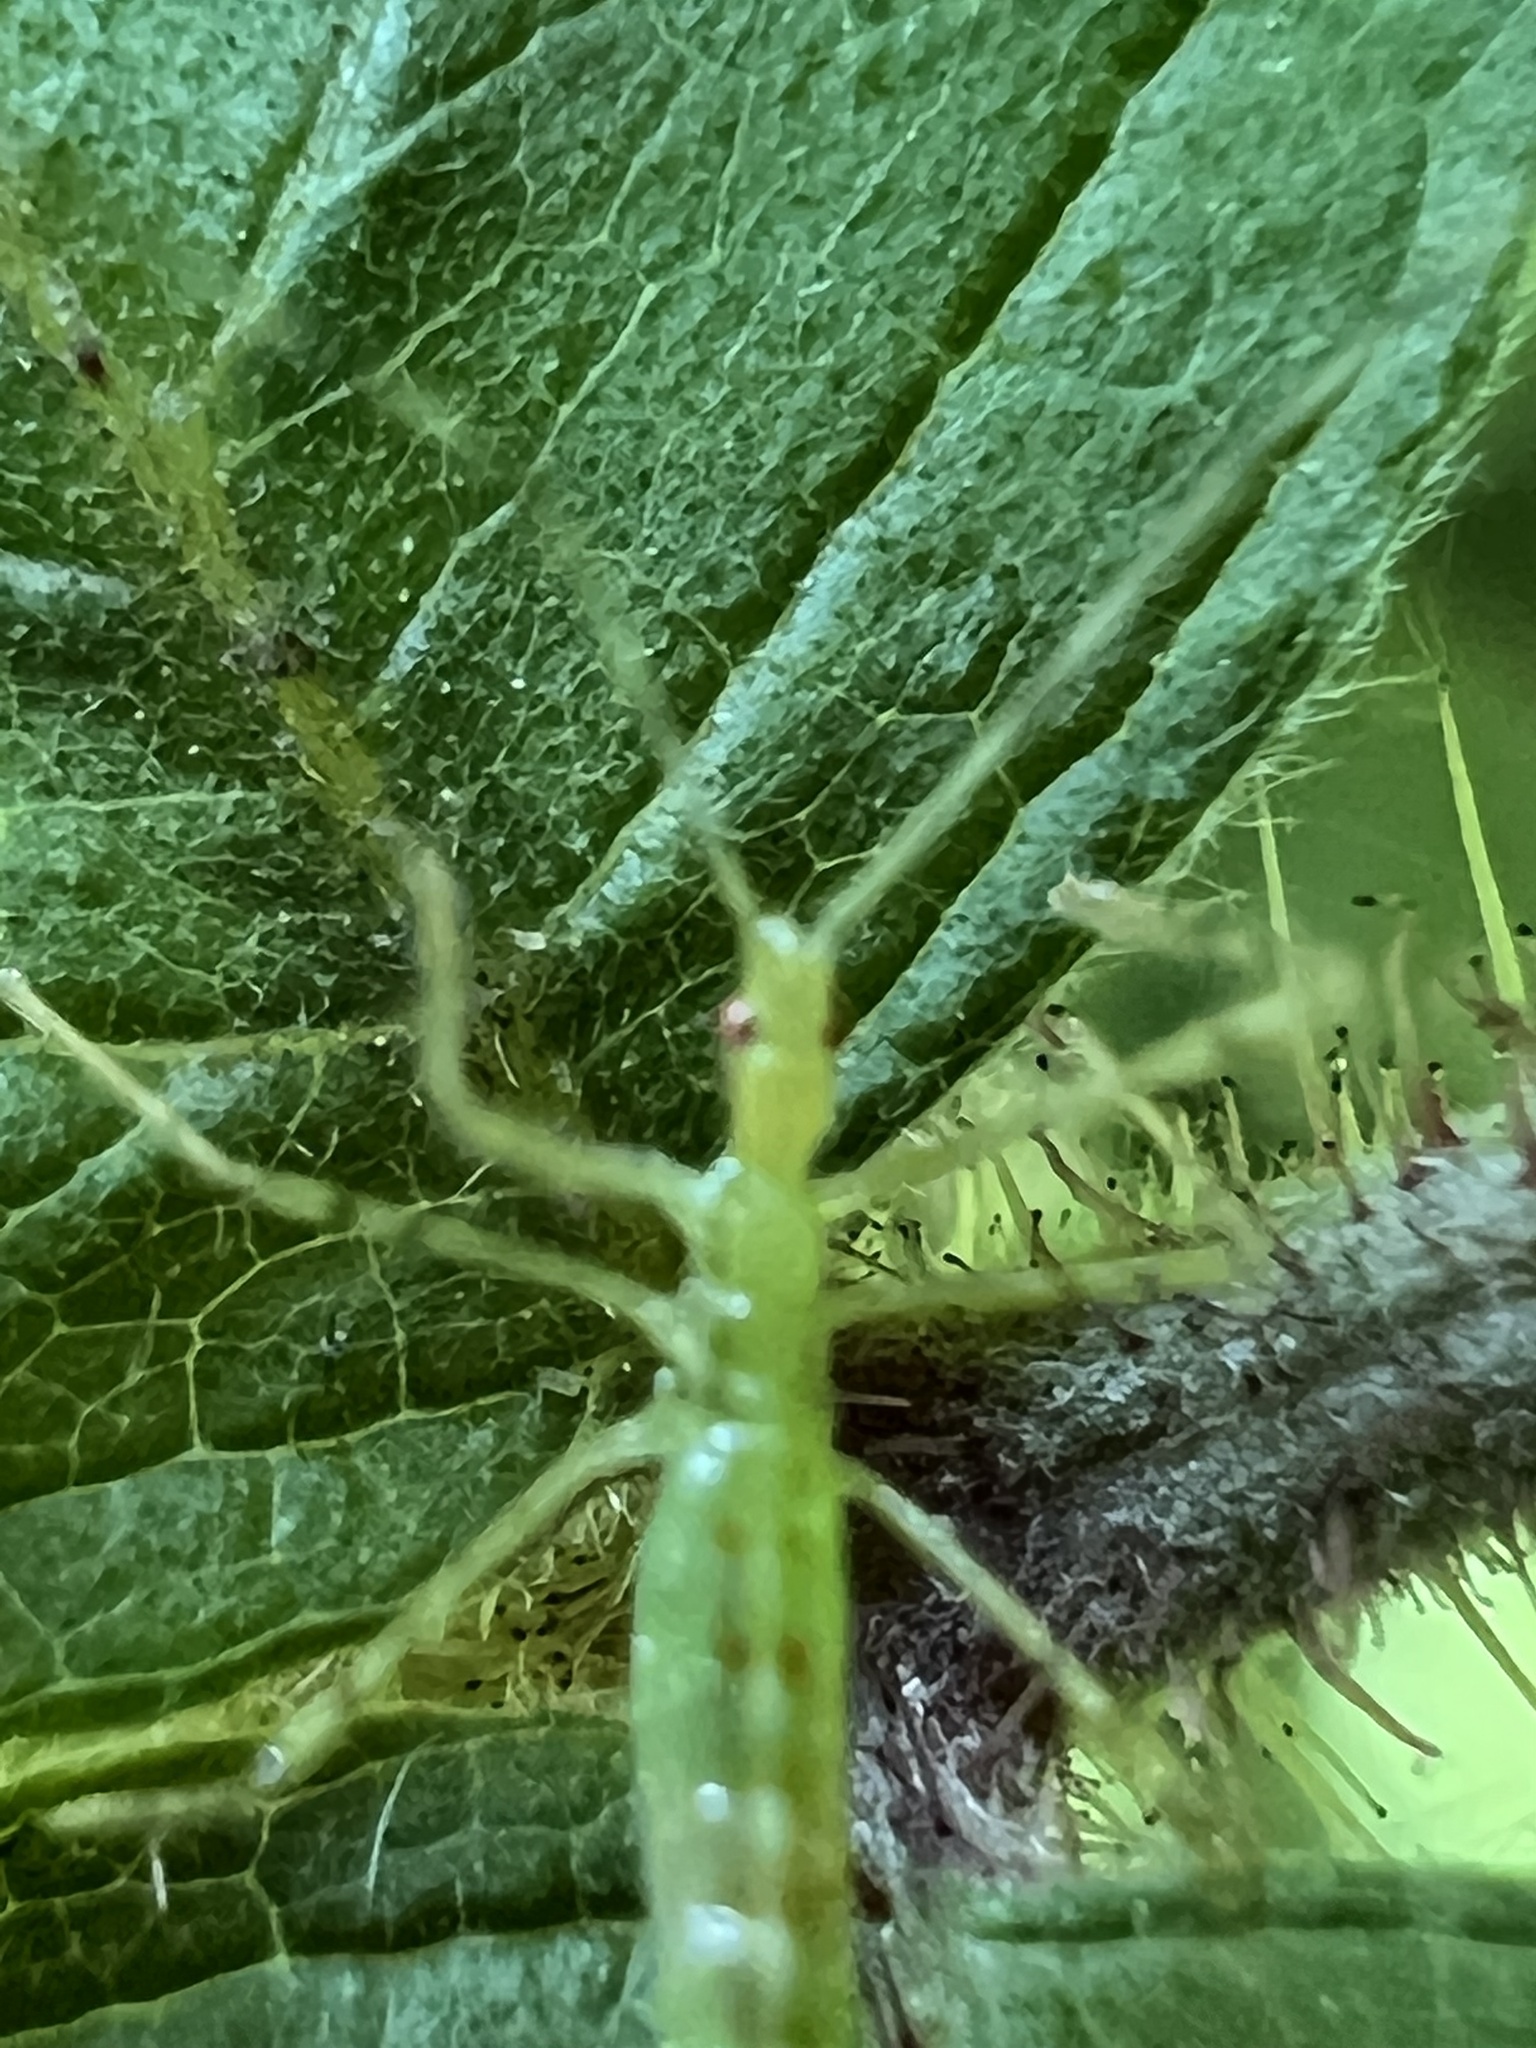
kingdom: Animalia
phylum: Arthropoda
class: Insecta
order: Hemiptera
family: Reduviidae
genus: Zelus
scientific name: Zelus luridus
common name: Pale green assassin bug
